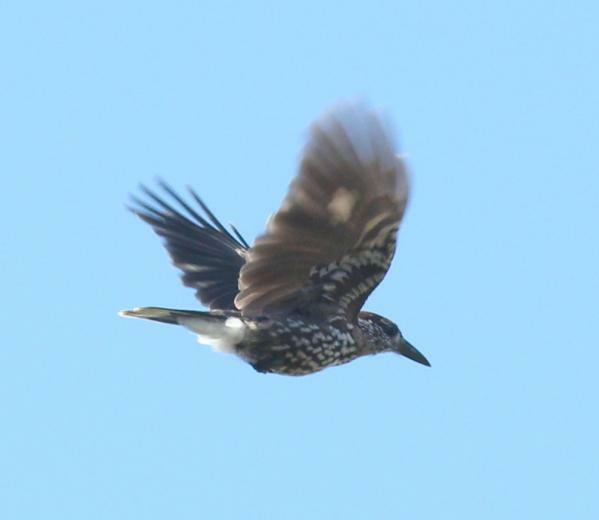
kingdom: Animalia
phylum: Chordata
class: Aves
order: Passeriformes
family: Corvidae
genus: Nucifraga
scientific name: Nucifraga caryocatactes
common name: Spotted nutcracker
